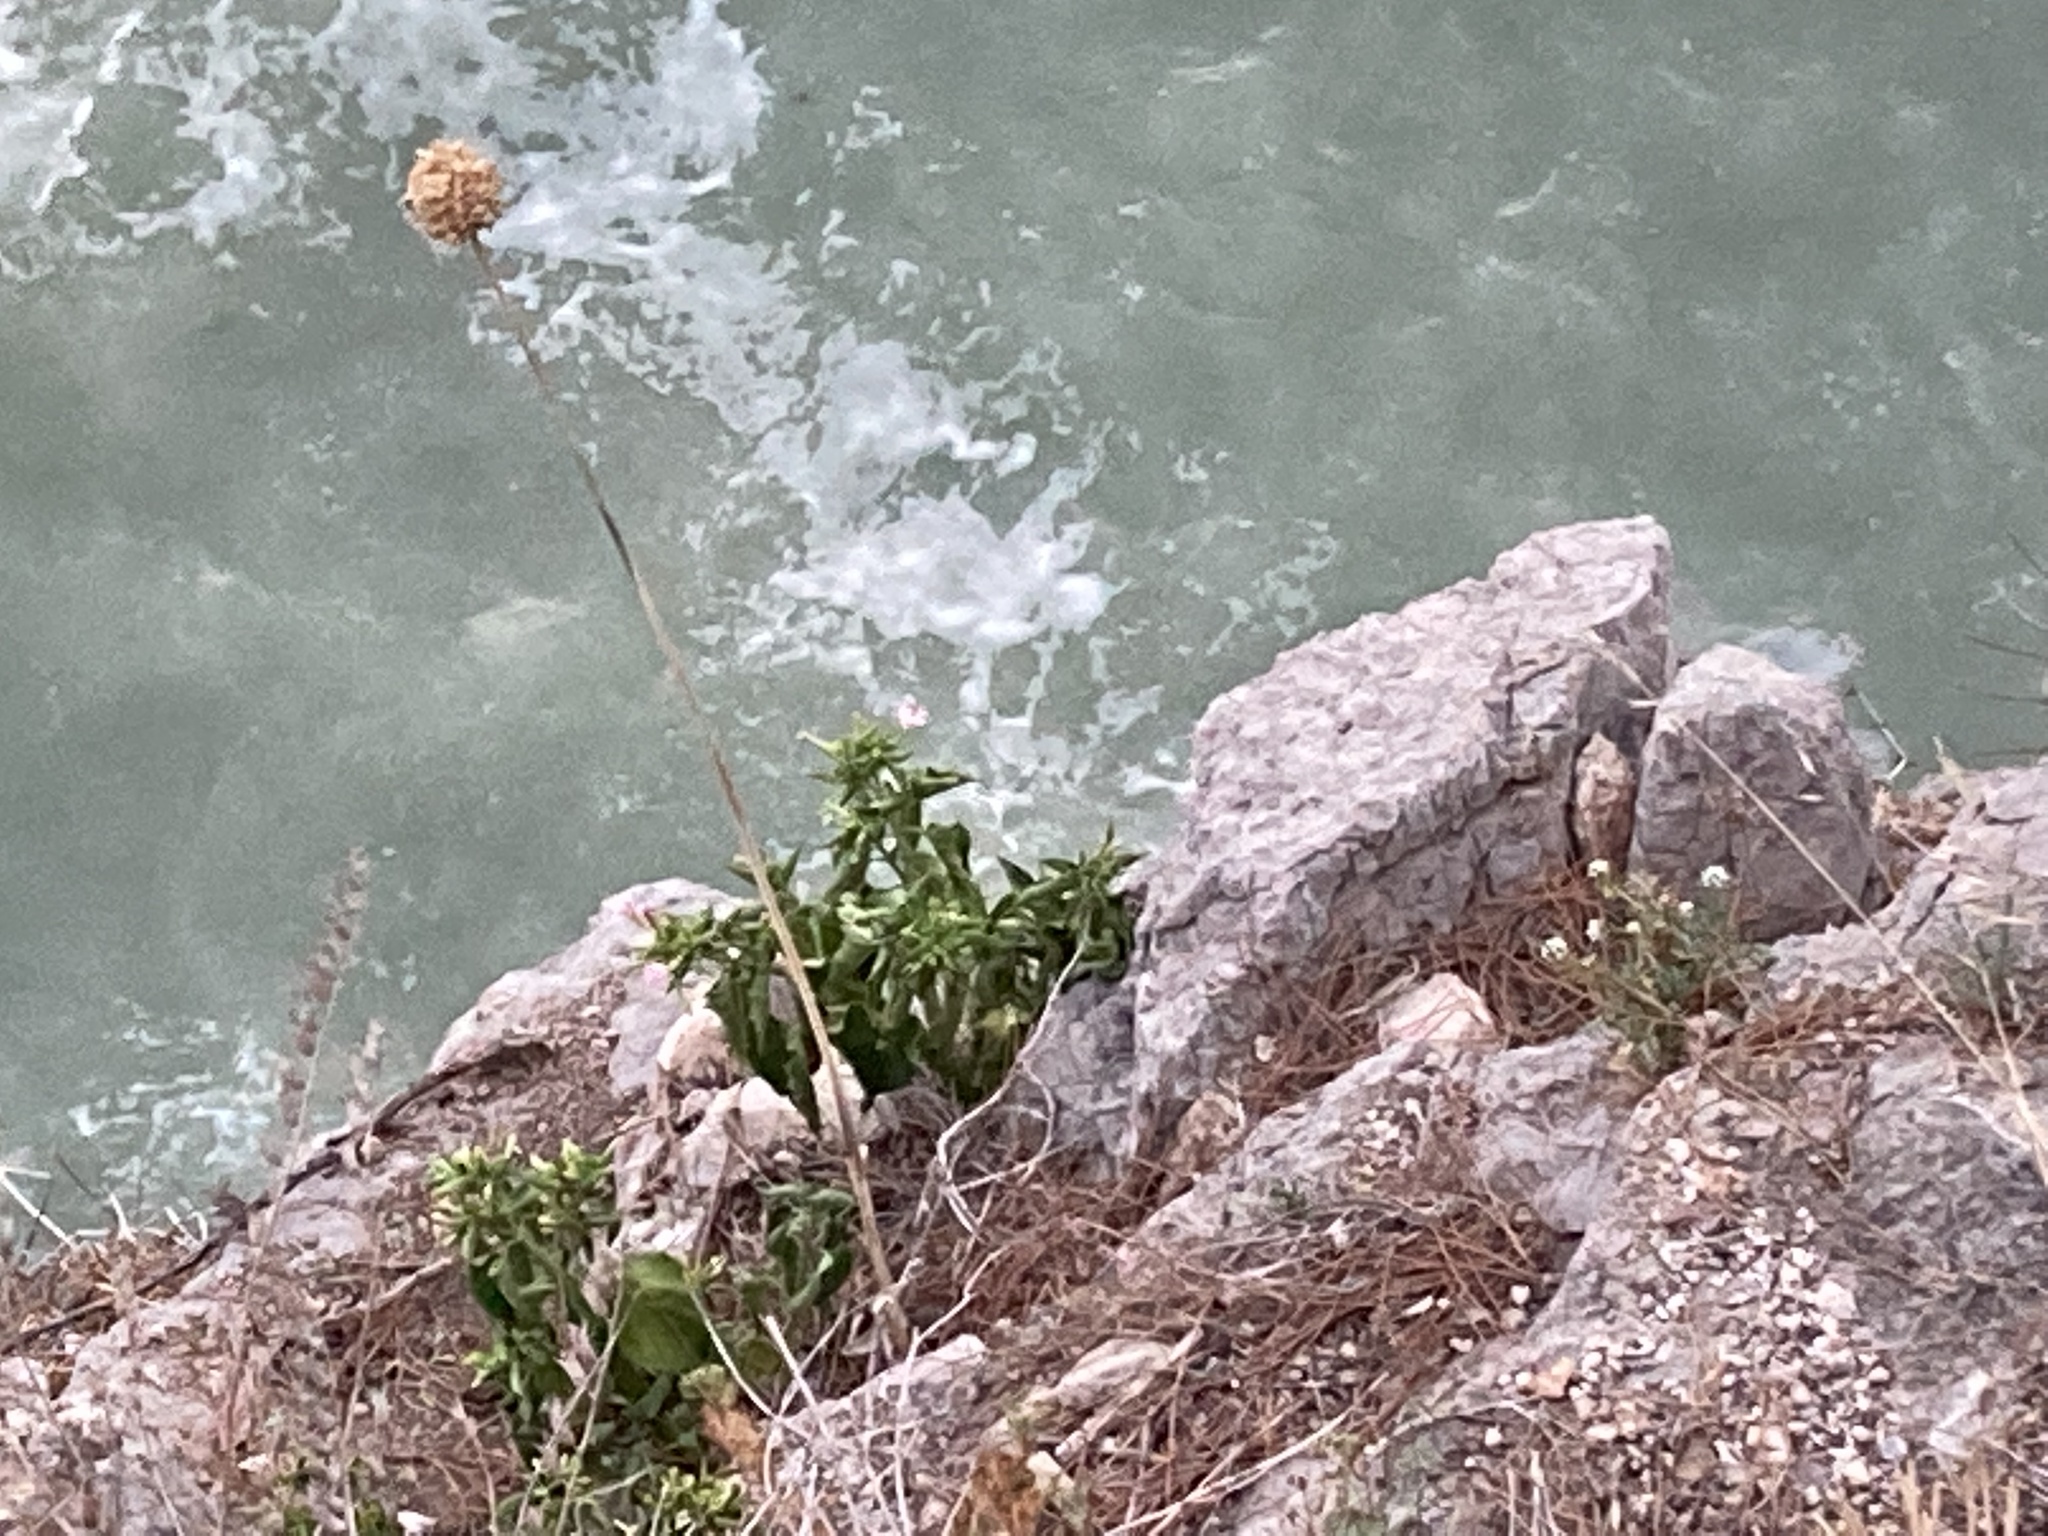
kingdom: Plantae
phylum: Tracheophyta
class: Magnoliopsida
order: Caryophyllales
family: Nyctaginaceae
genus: Mirabilis
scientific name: Mirabilis jalapa
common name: Marvel-of-peru
